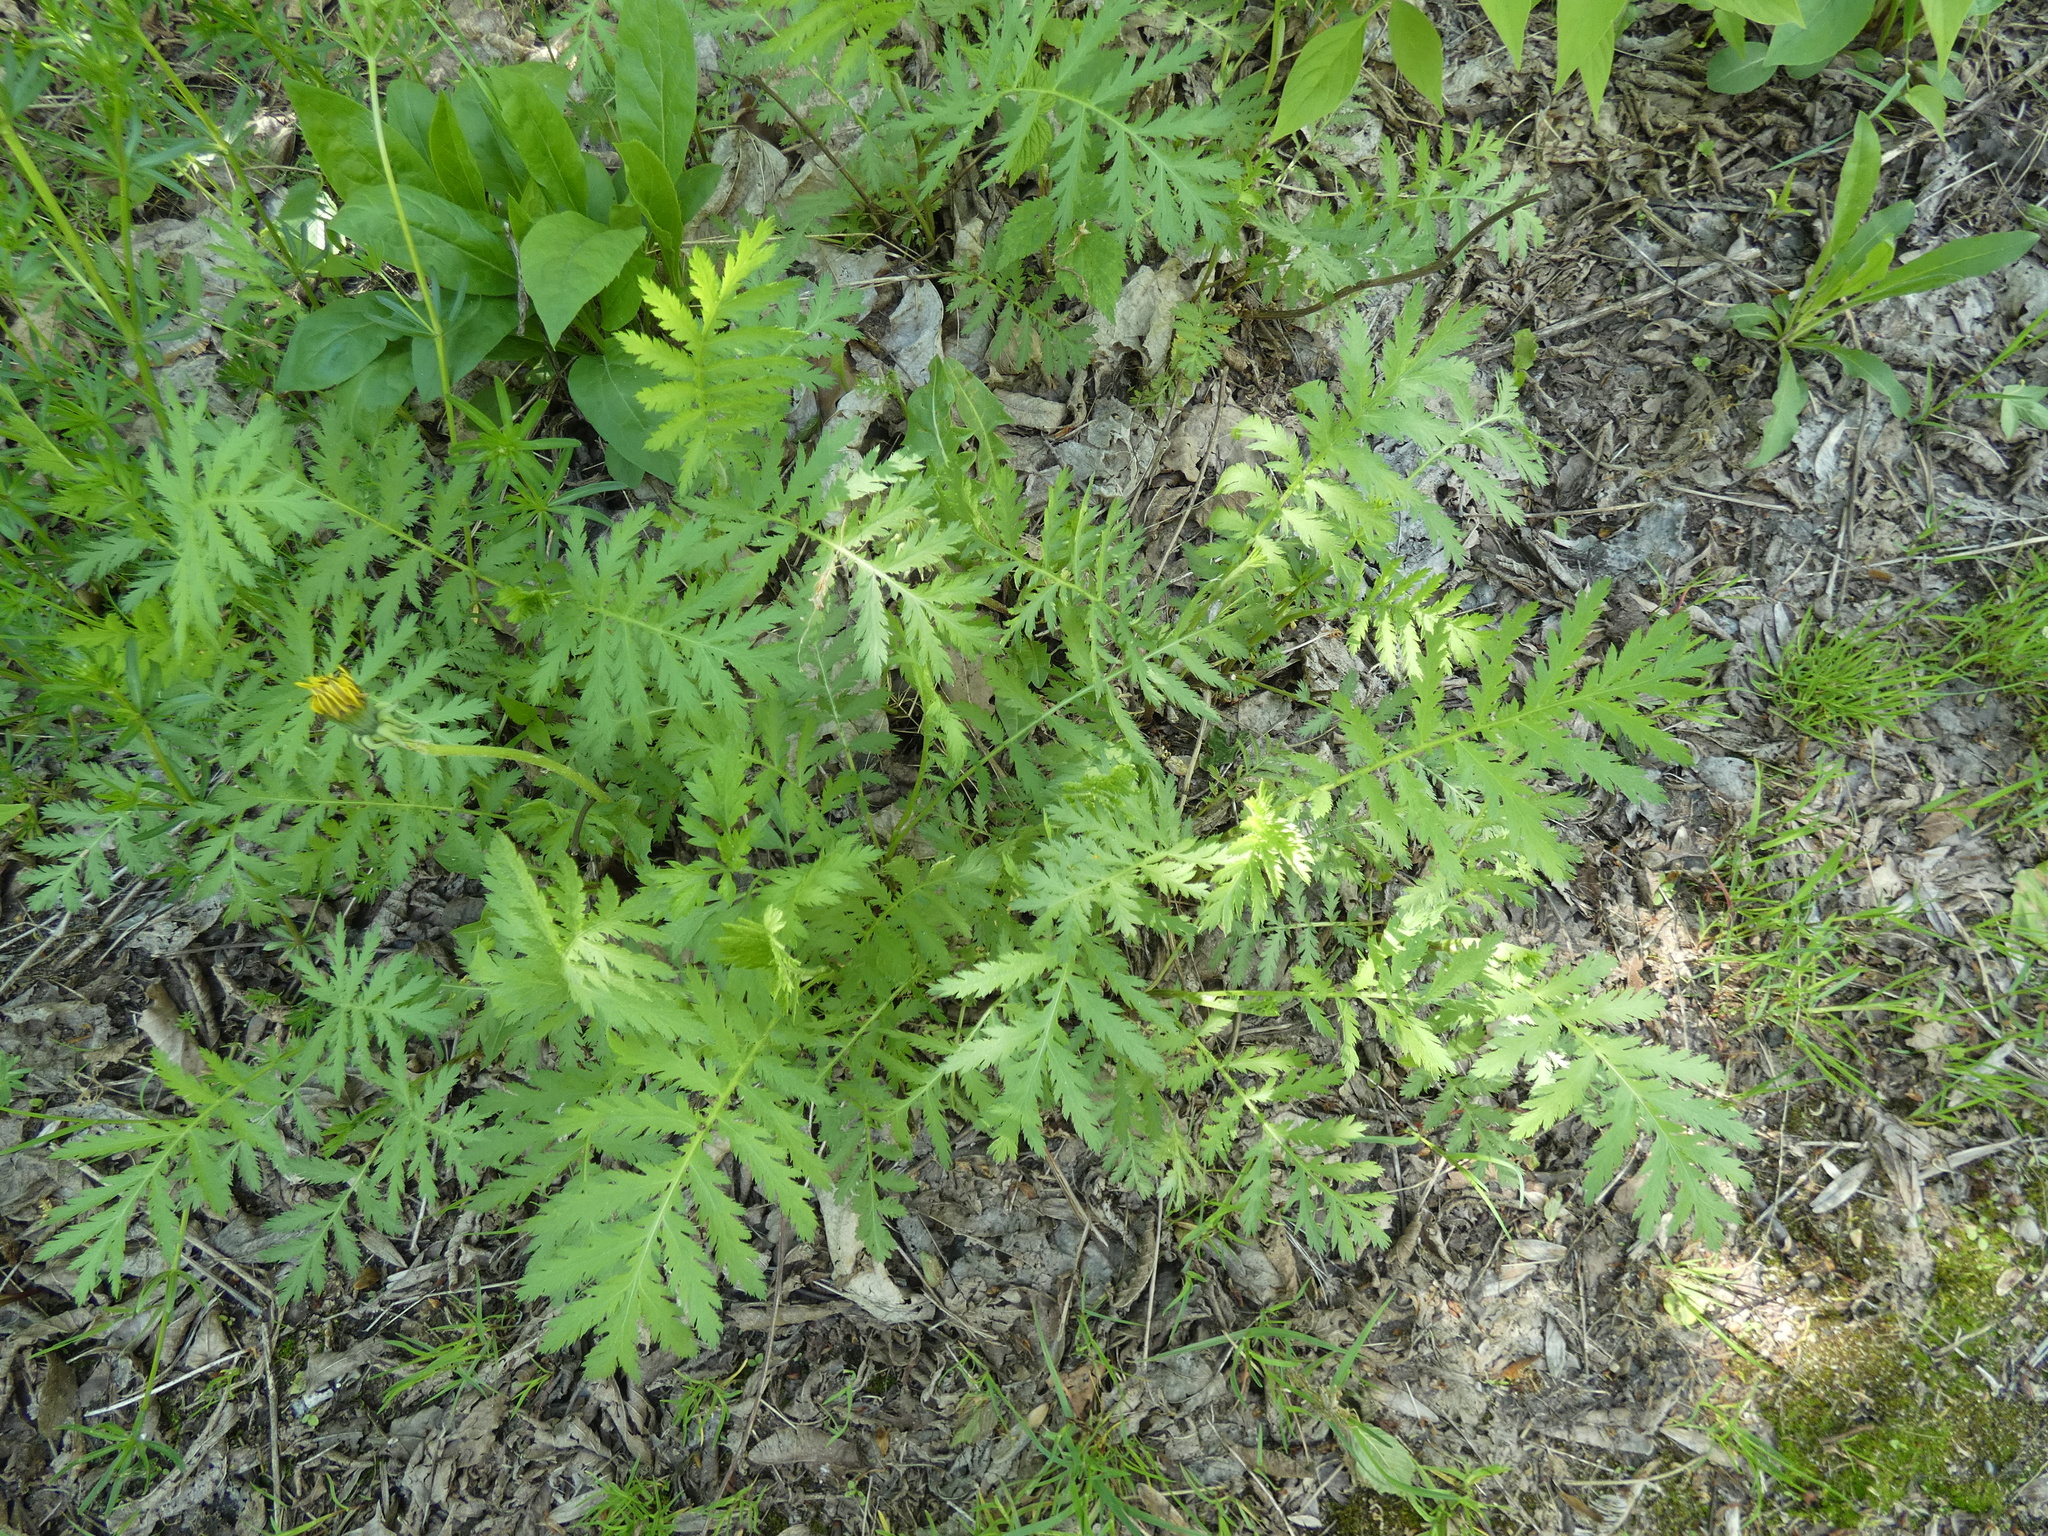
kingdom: Plantae
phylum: Tracheophyta
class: Magnoliopsida
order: Asterales
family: Asteraceae
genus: Tanacetum
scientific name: Tanacetum vulgare
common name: Common tansy
